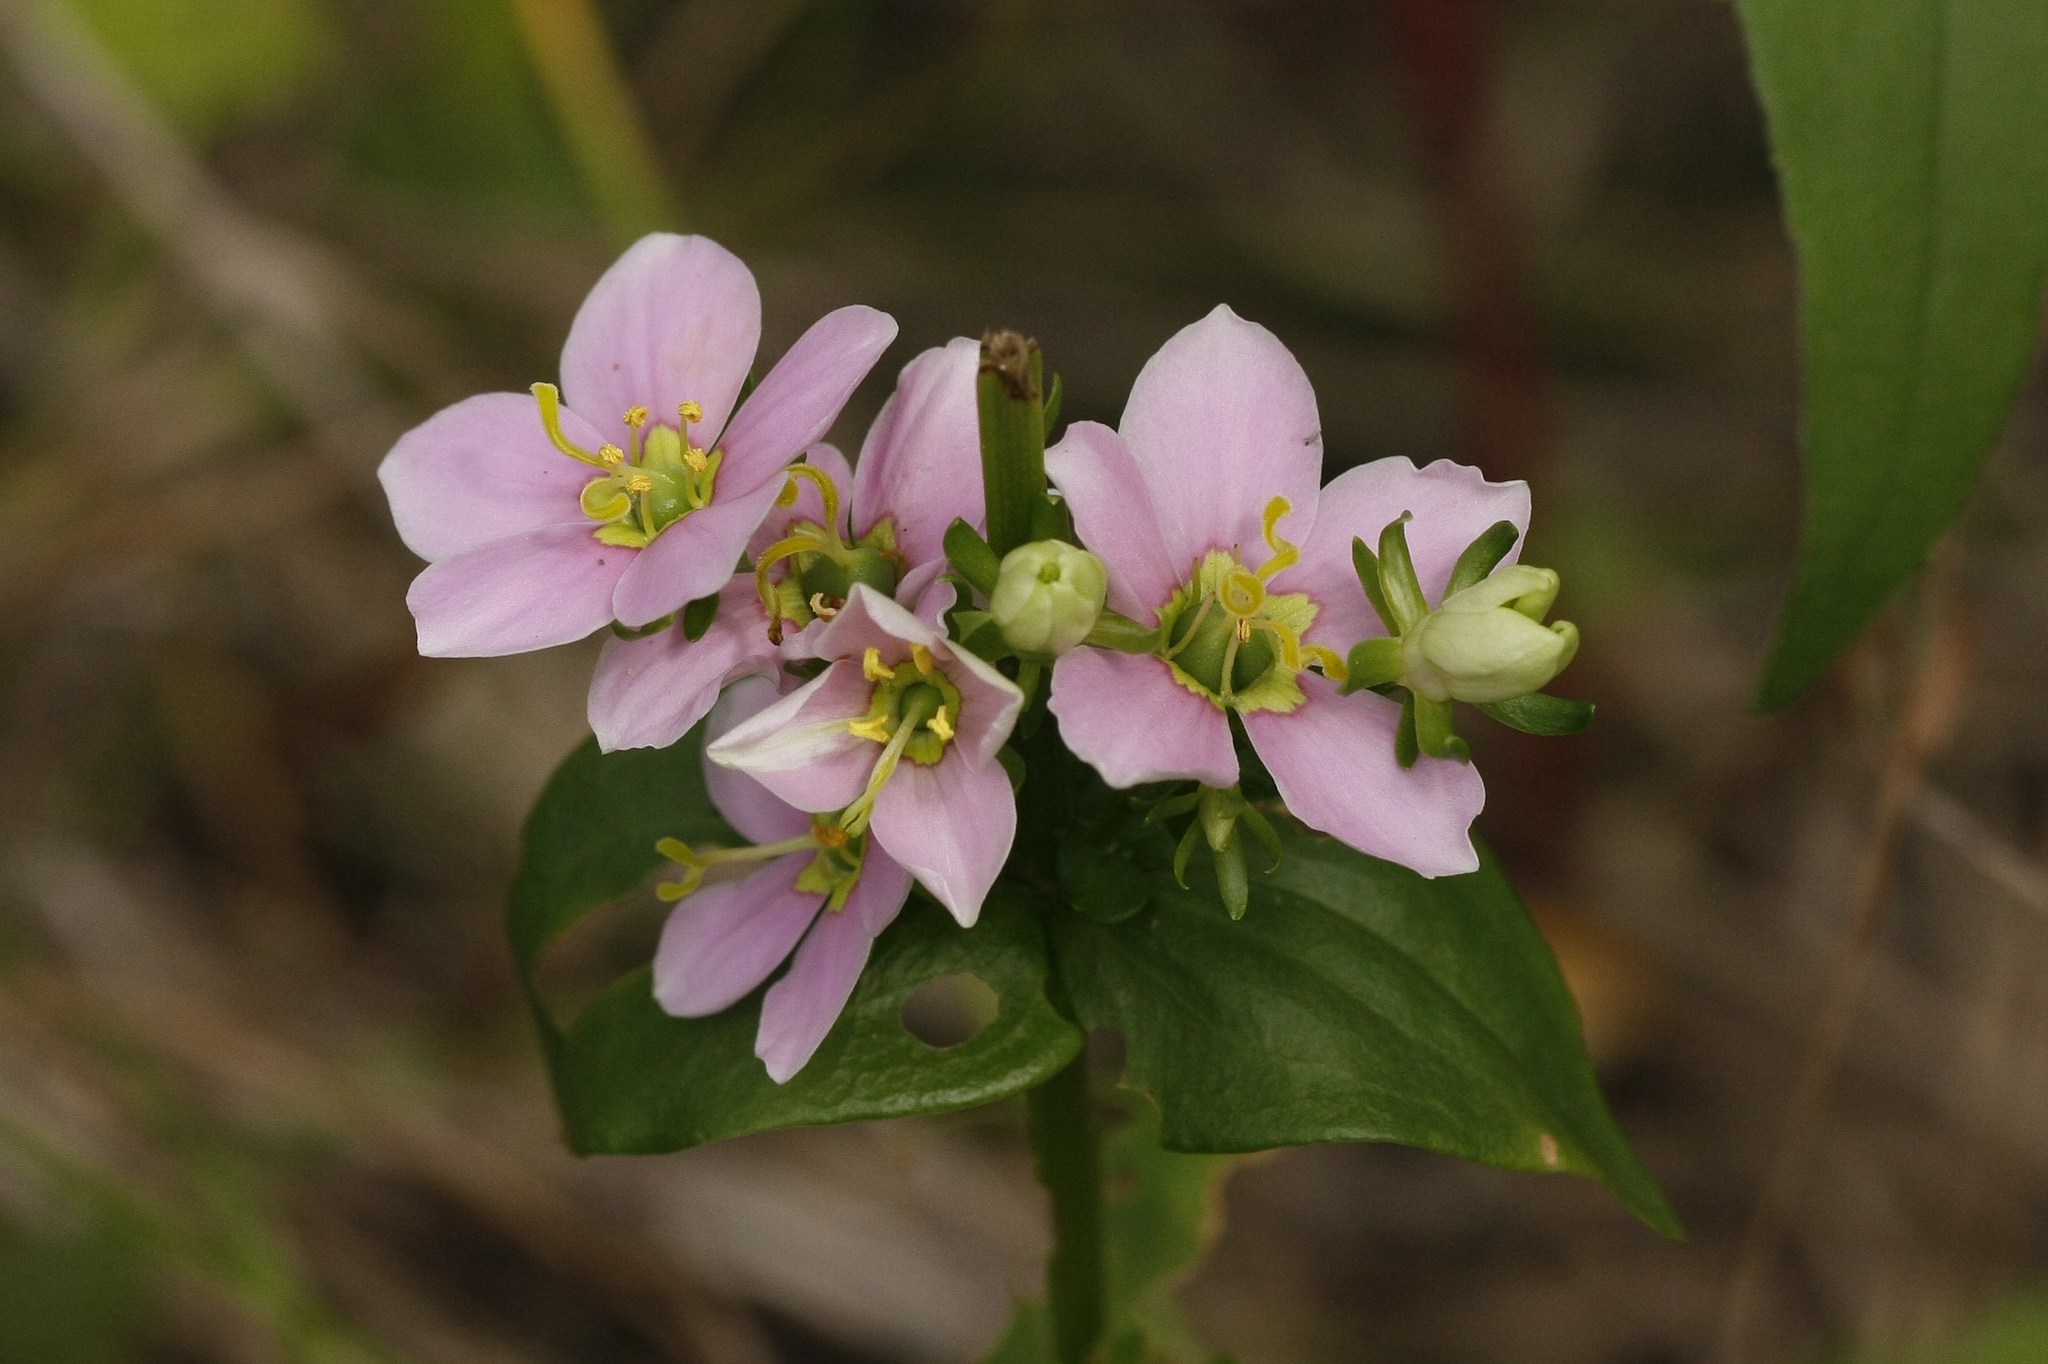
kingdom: Plantae
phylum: Tracheophyta
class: Magnoliopsida
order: Gentianales
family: Gentianaceae
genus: Sabatia
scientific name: Sabatia angularis
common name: Rose-pink
